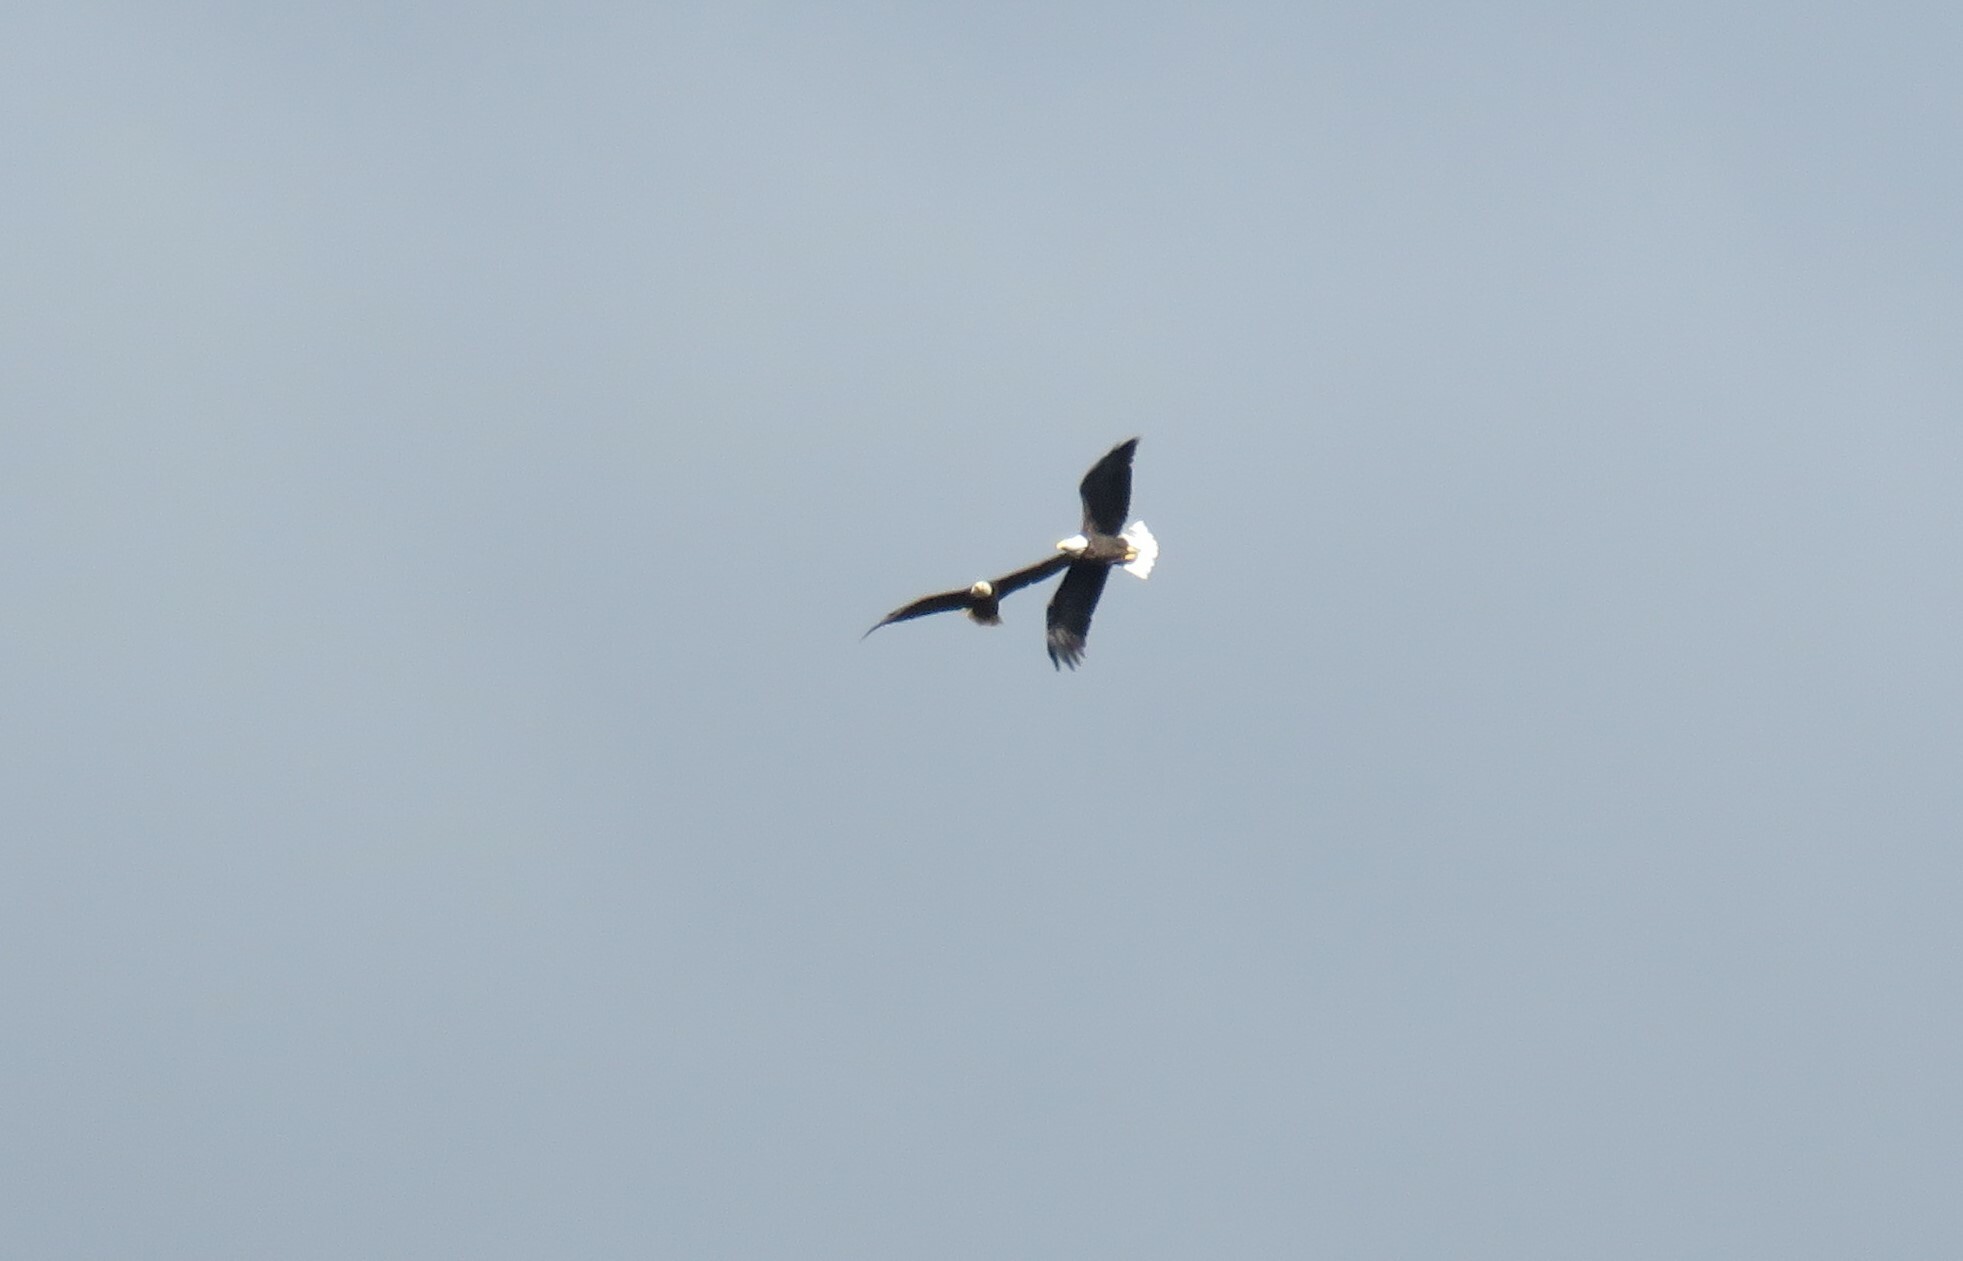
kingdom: Animalia
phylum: Chordata
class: Aves
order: Accipitriformes
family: Accipitridae
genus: Haliaeetus
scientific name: Haliaeetus leucocephalus
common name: Bald eagle
